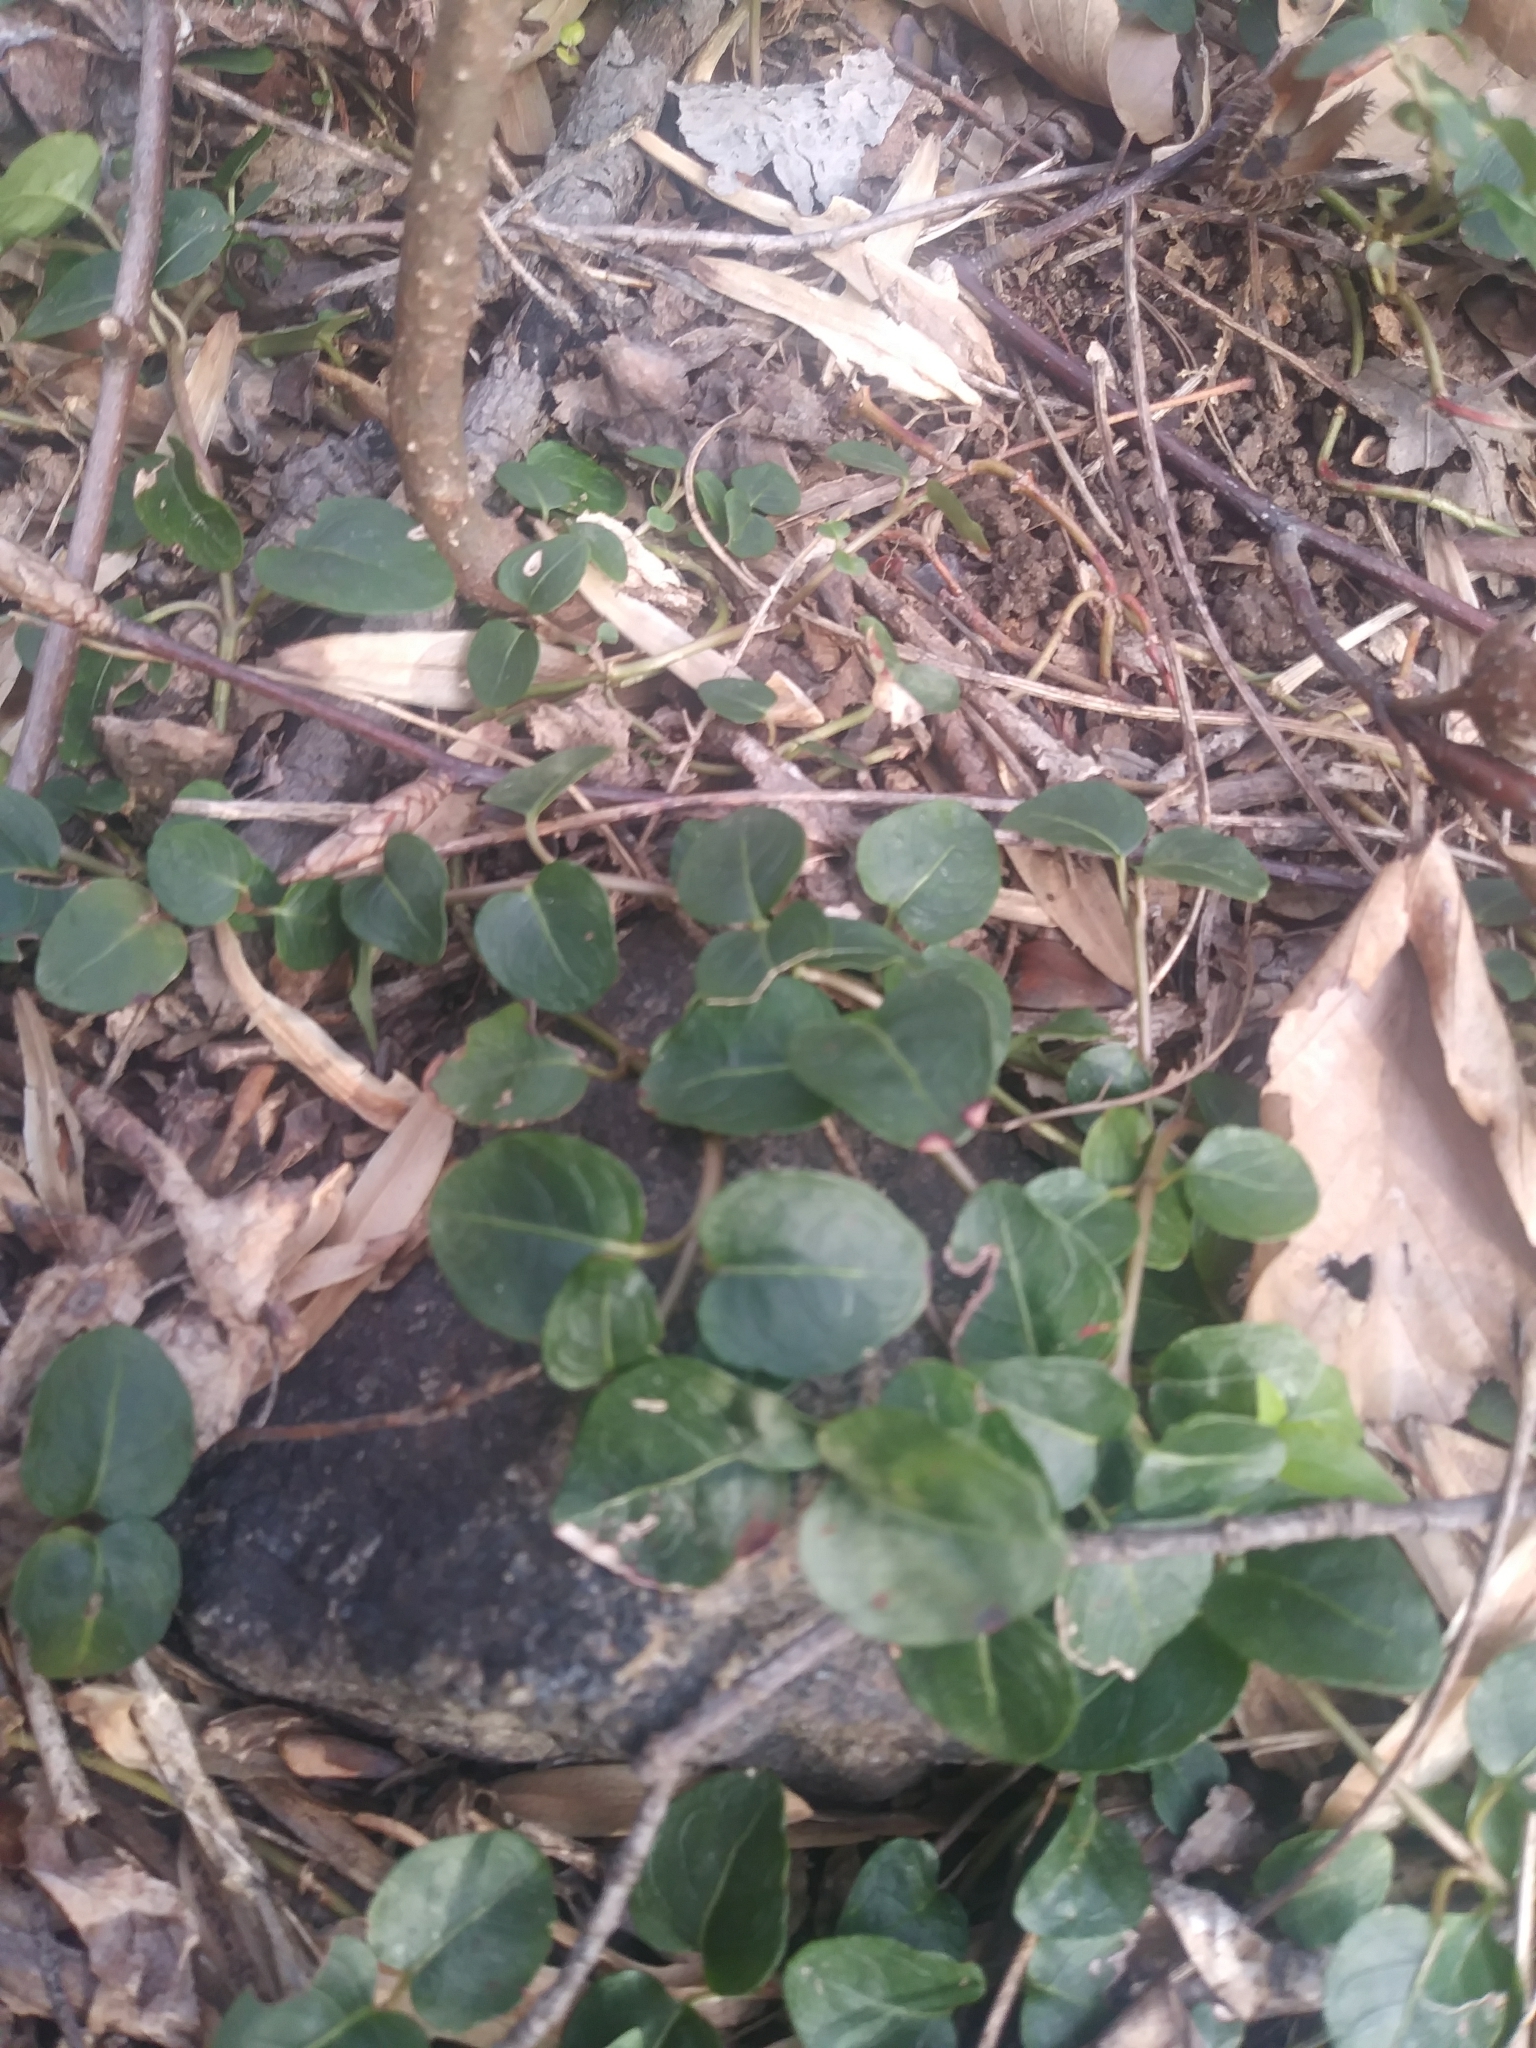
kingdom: Plantae
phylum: Tracheophyta
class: Magnoliopsida
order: Gentianales
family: Rubiaceae
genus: Mitchella
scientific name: Mitchella repens
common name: Partridge-berry
